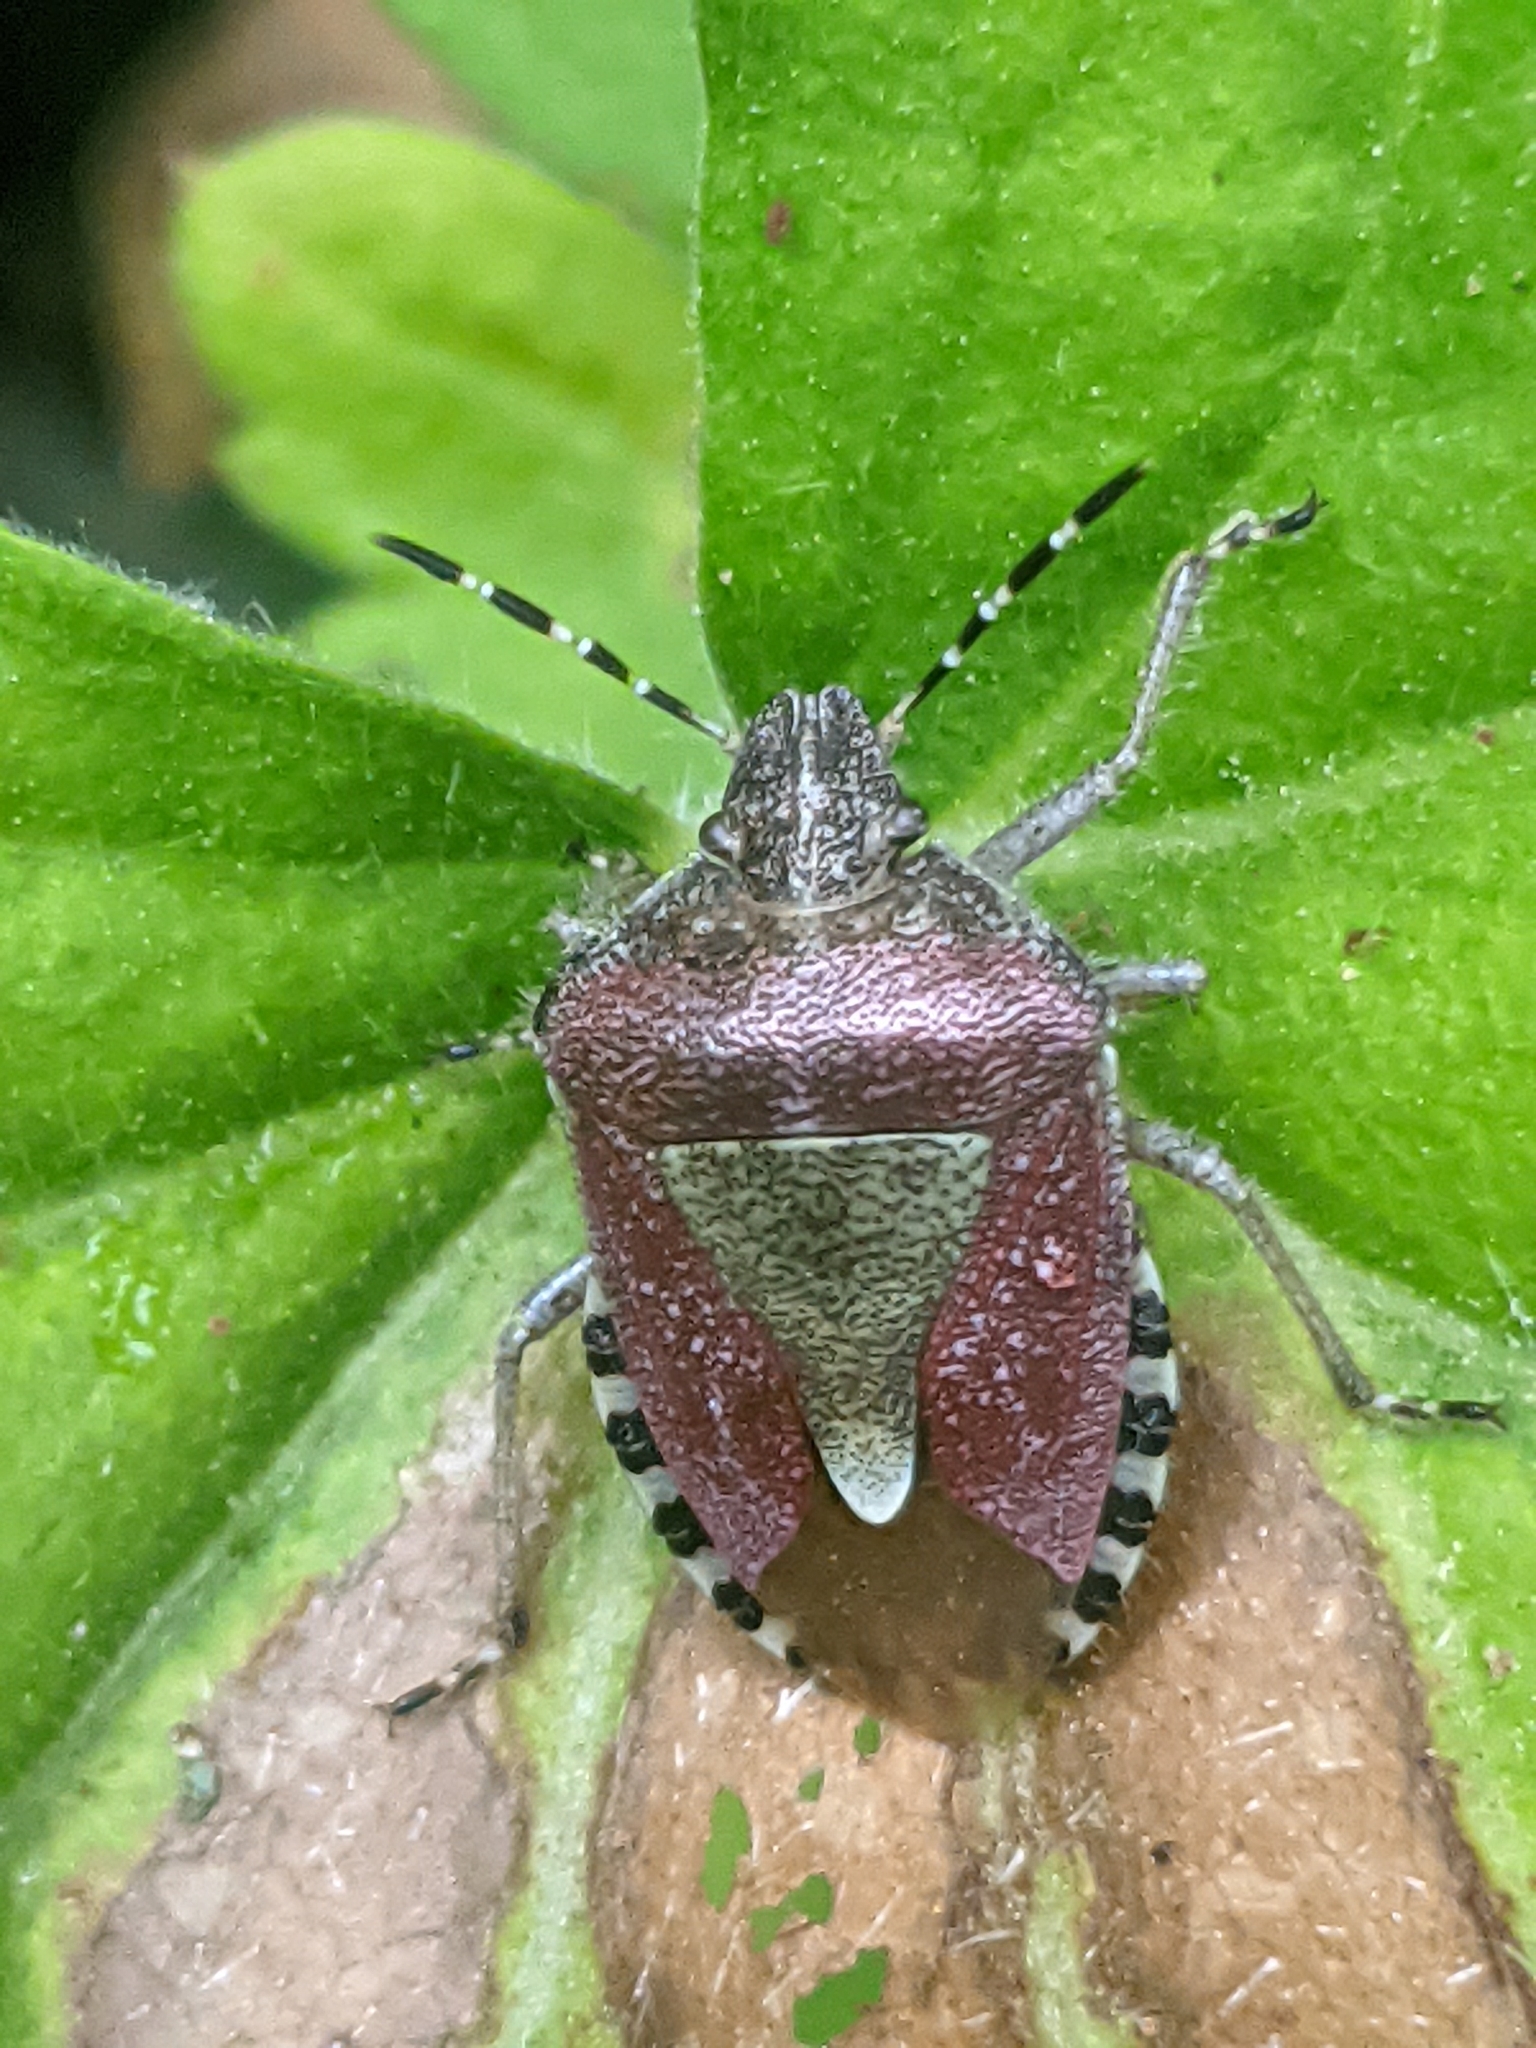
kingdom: Animalia
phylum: Arthropoda
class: Insecta
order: Hemiptera
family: Pentatomidae
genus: Dolycoris
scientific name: Dolycoris baccarum
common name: Sloe bug
